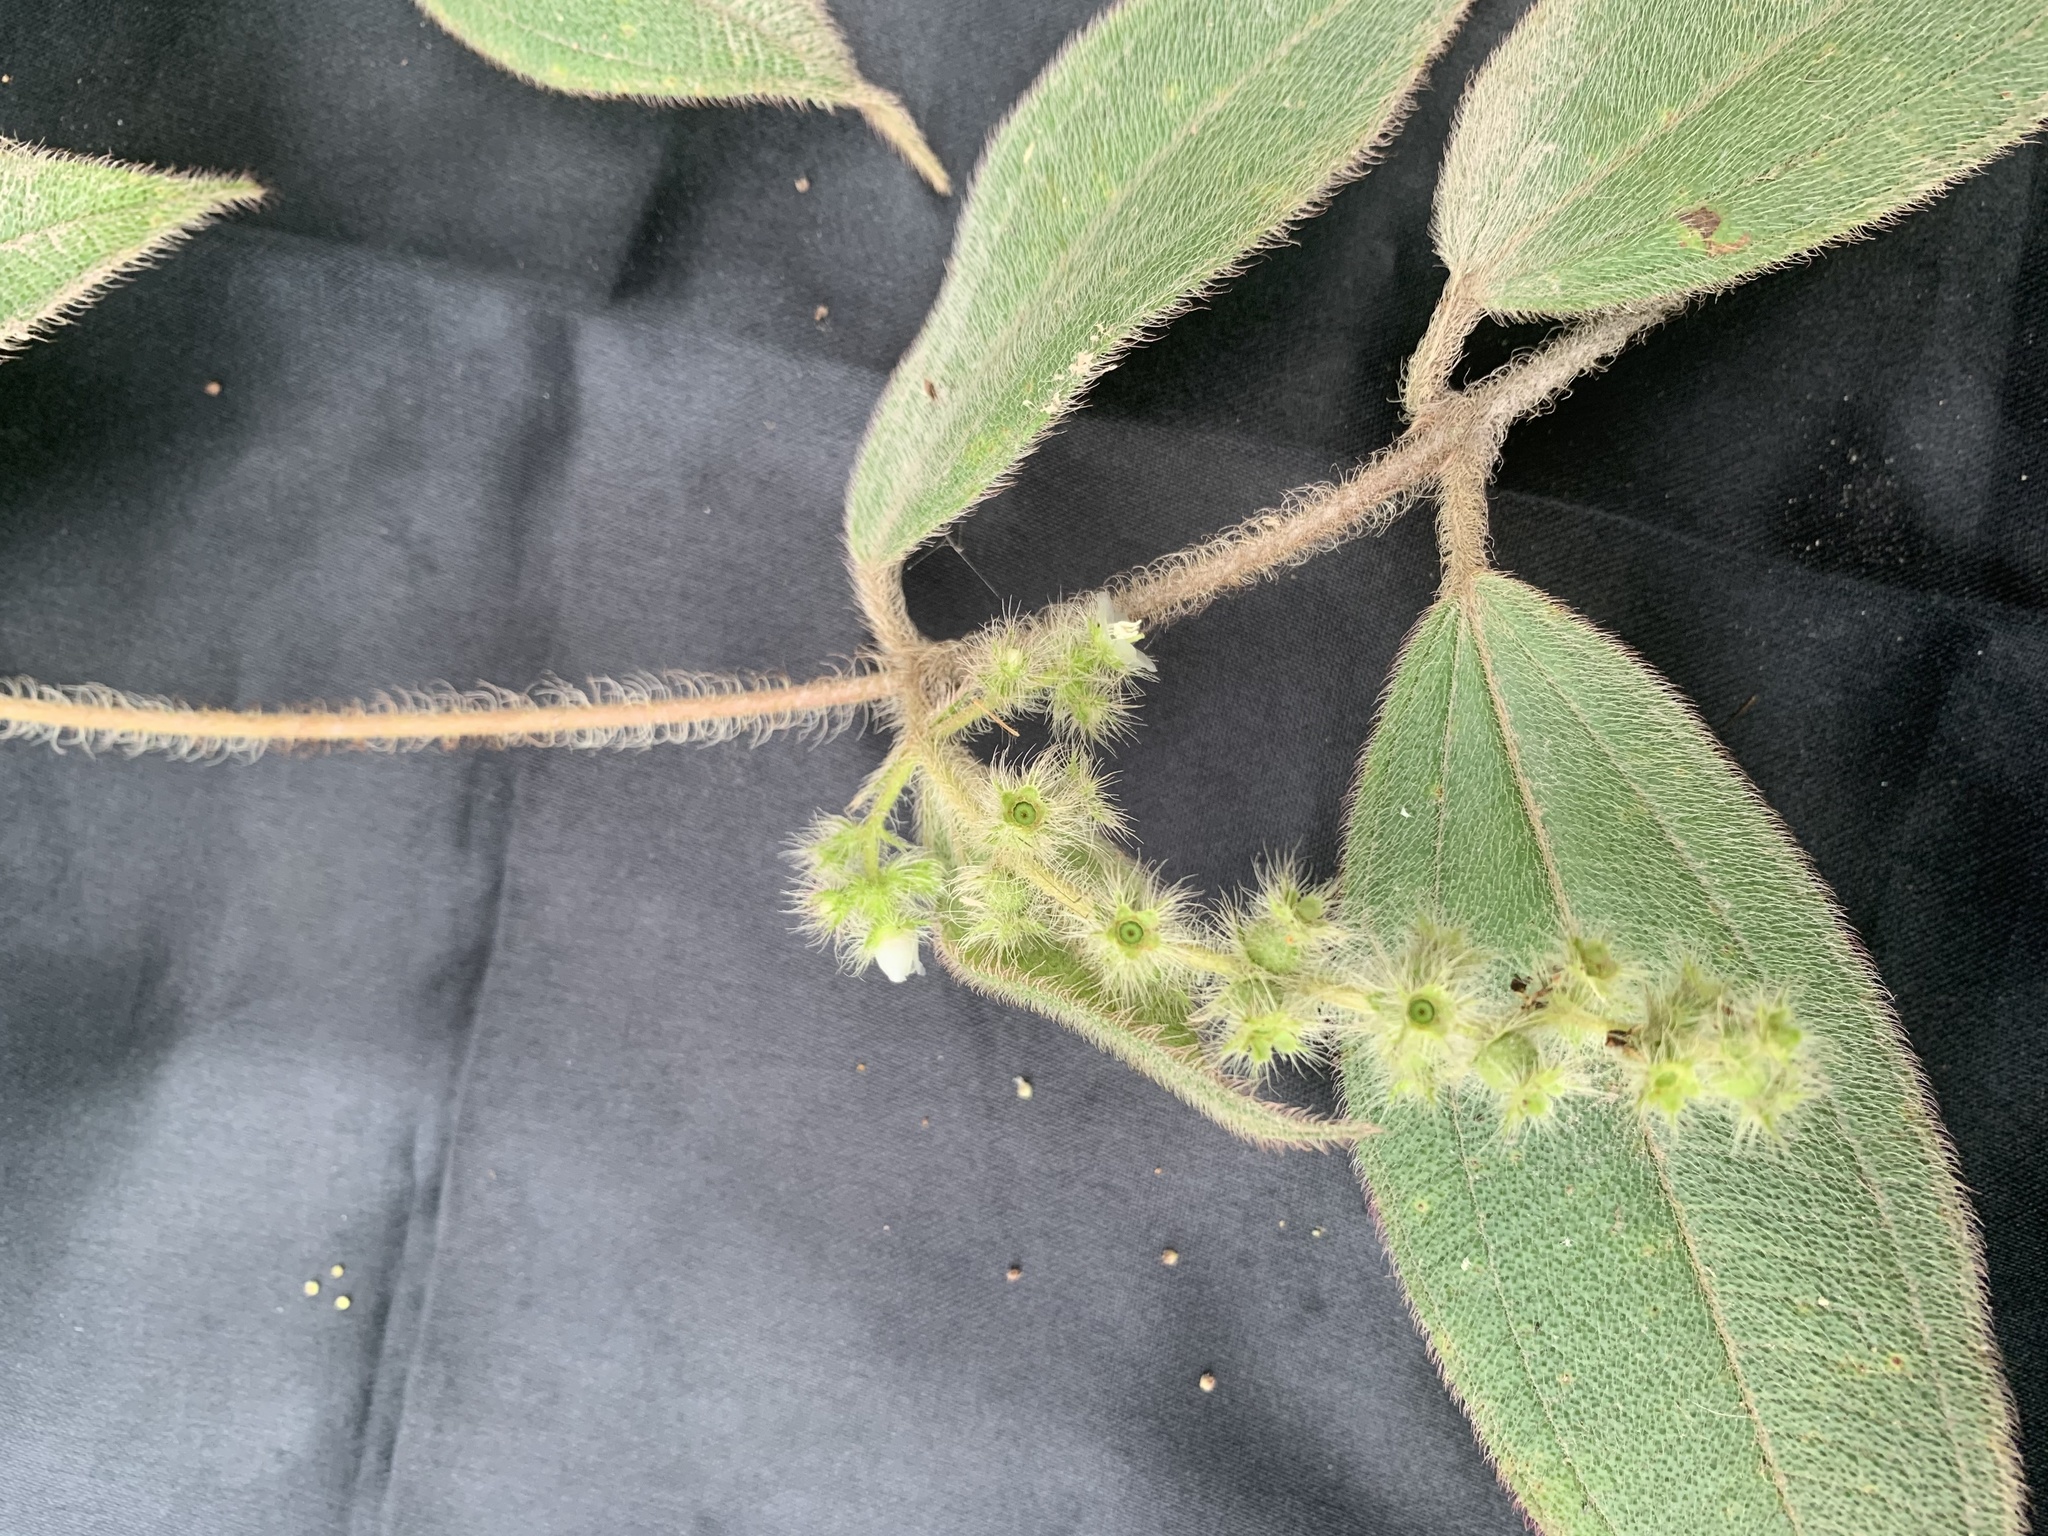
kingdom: Plantae
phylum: Tracheophyta
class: Magnoliopsida
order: Myrtales
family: Melastomataceae
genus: Miconia
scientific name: Miconia dependens
